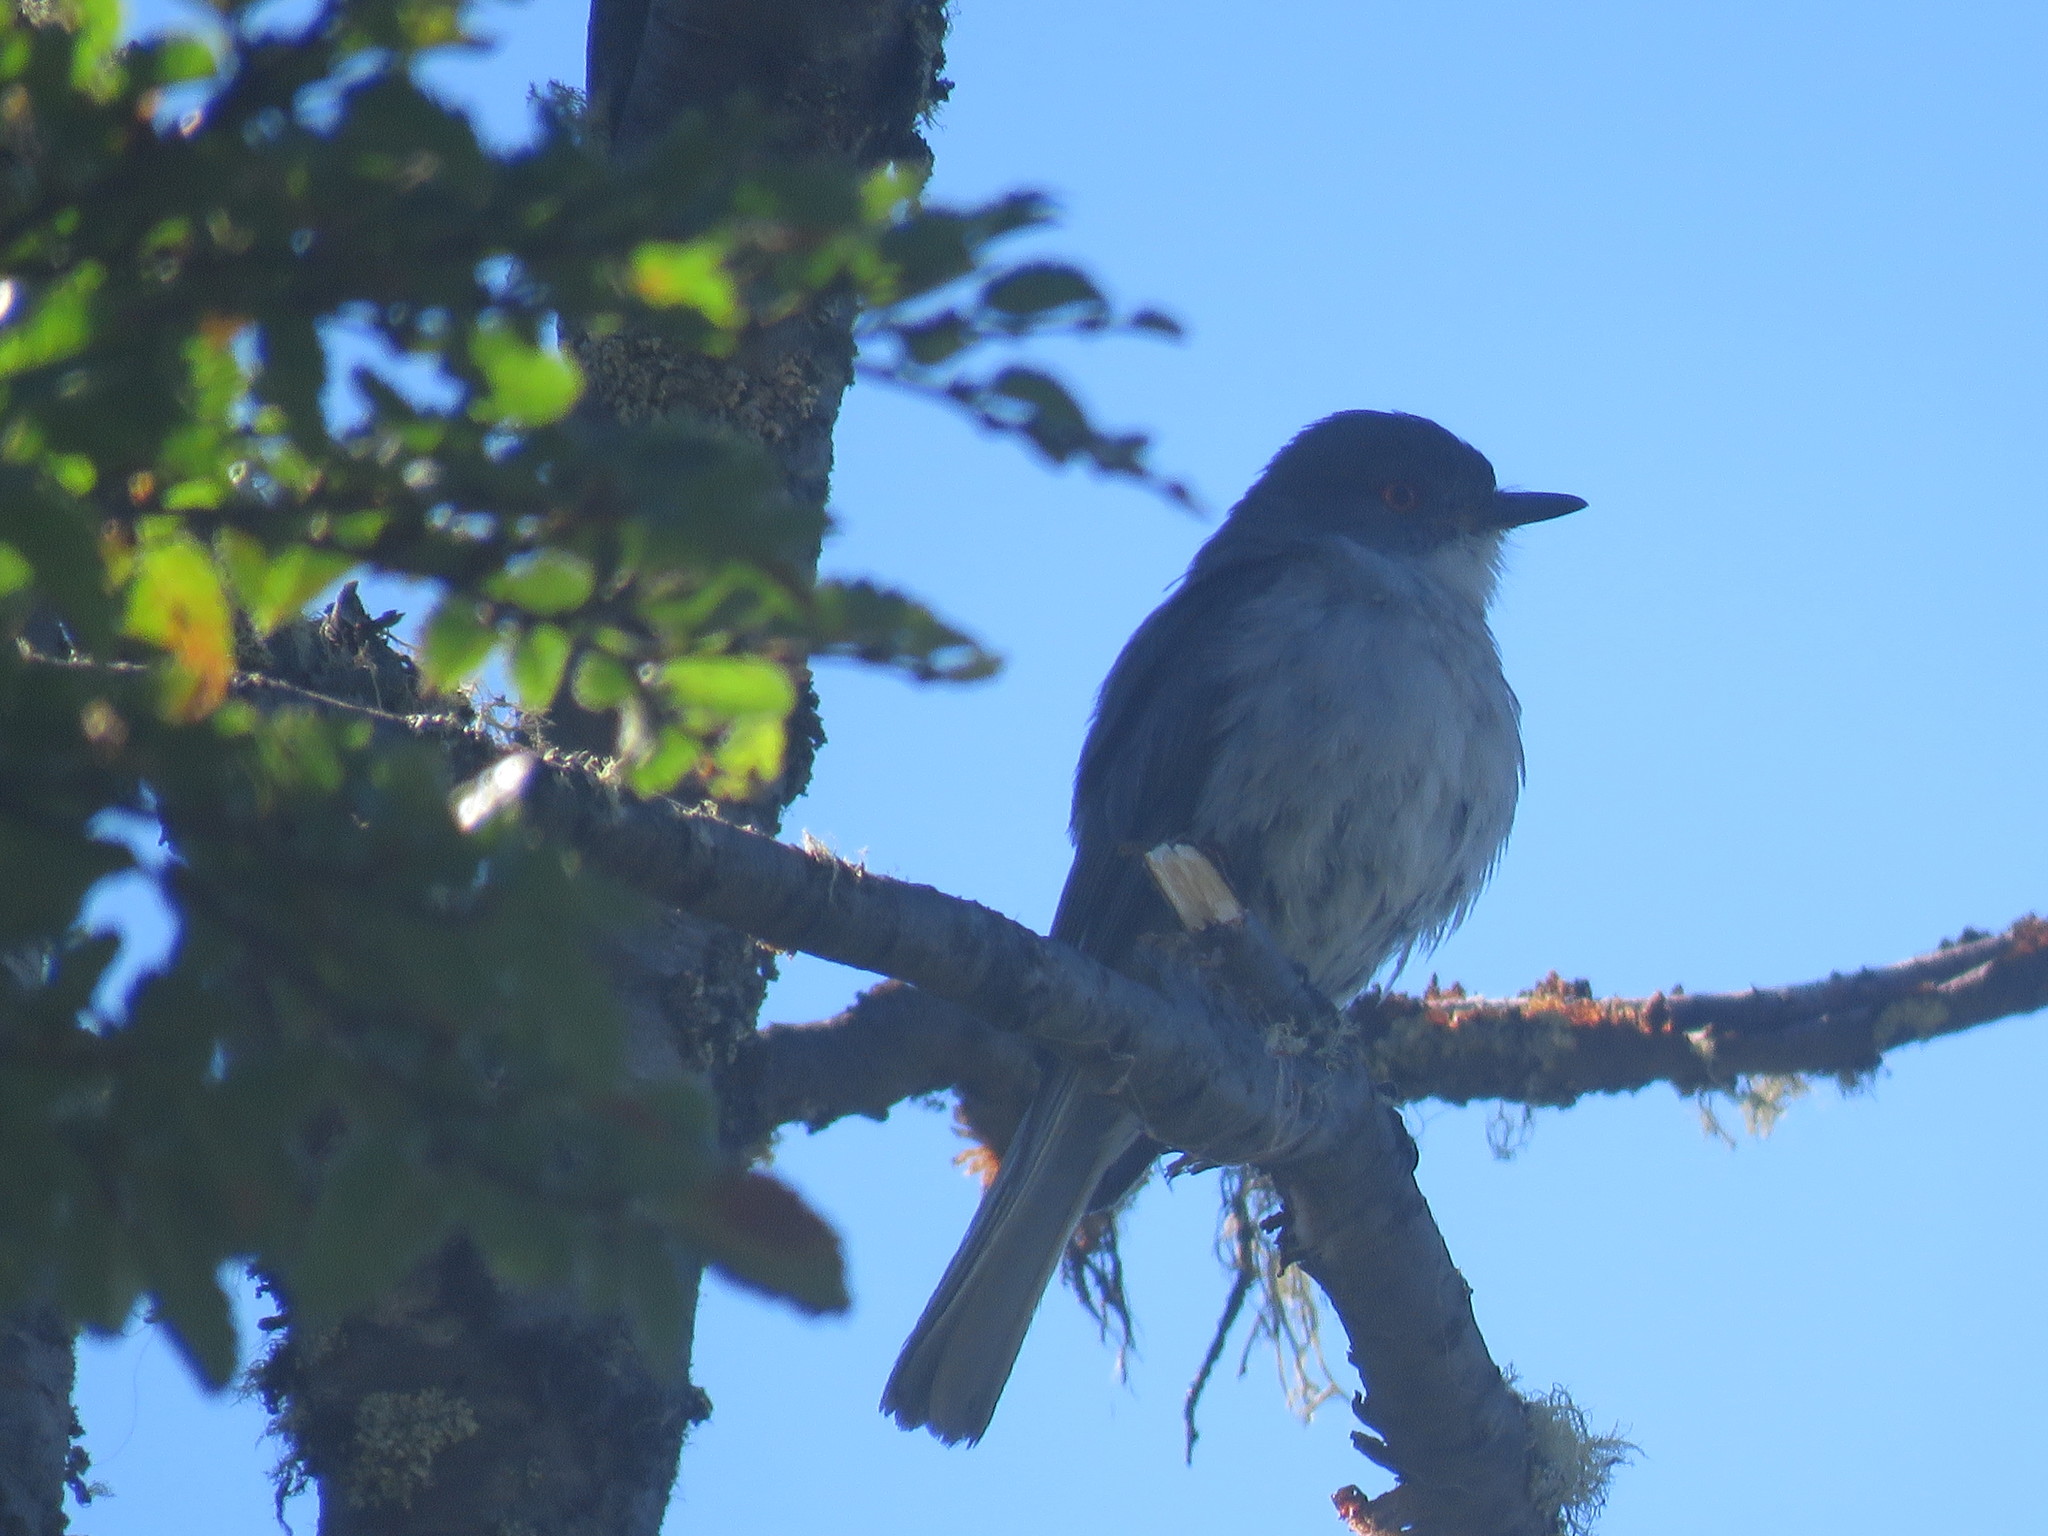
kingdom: Animalia
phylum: Chordata
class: Aves
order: Passeriformes
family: Tyrannidae
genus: Xolmis
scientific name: Xolmis pyrope
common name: Fire-eyed diucon
